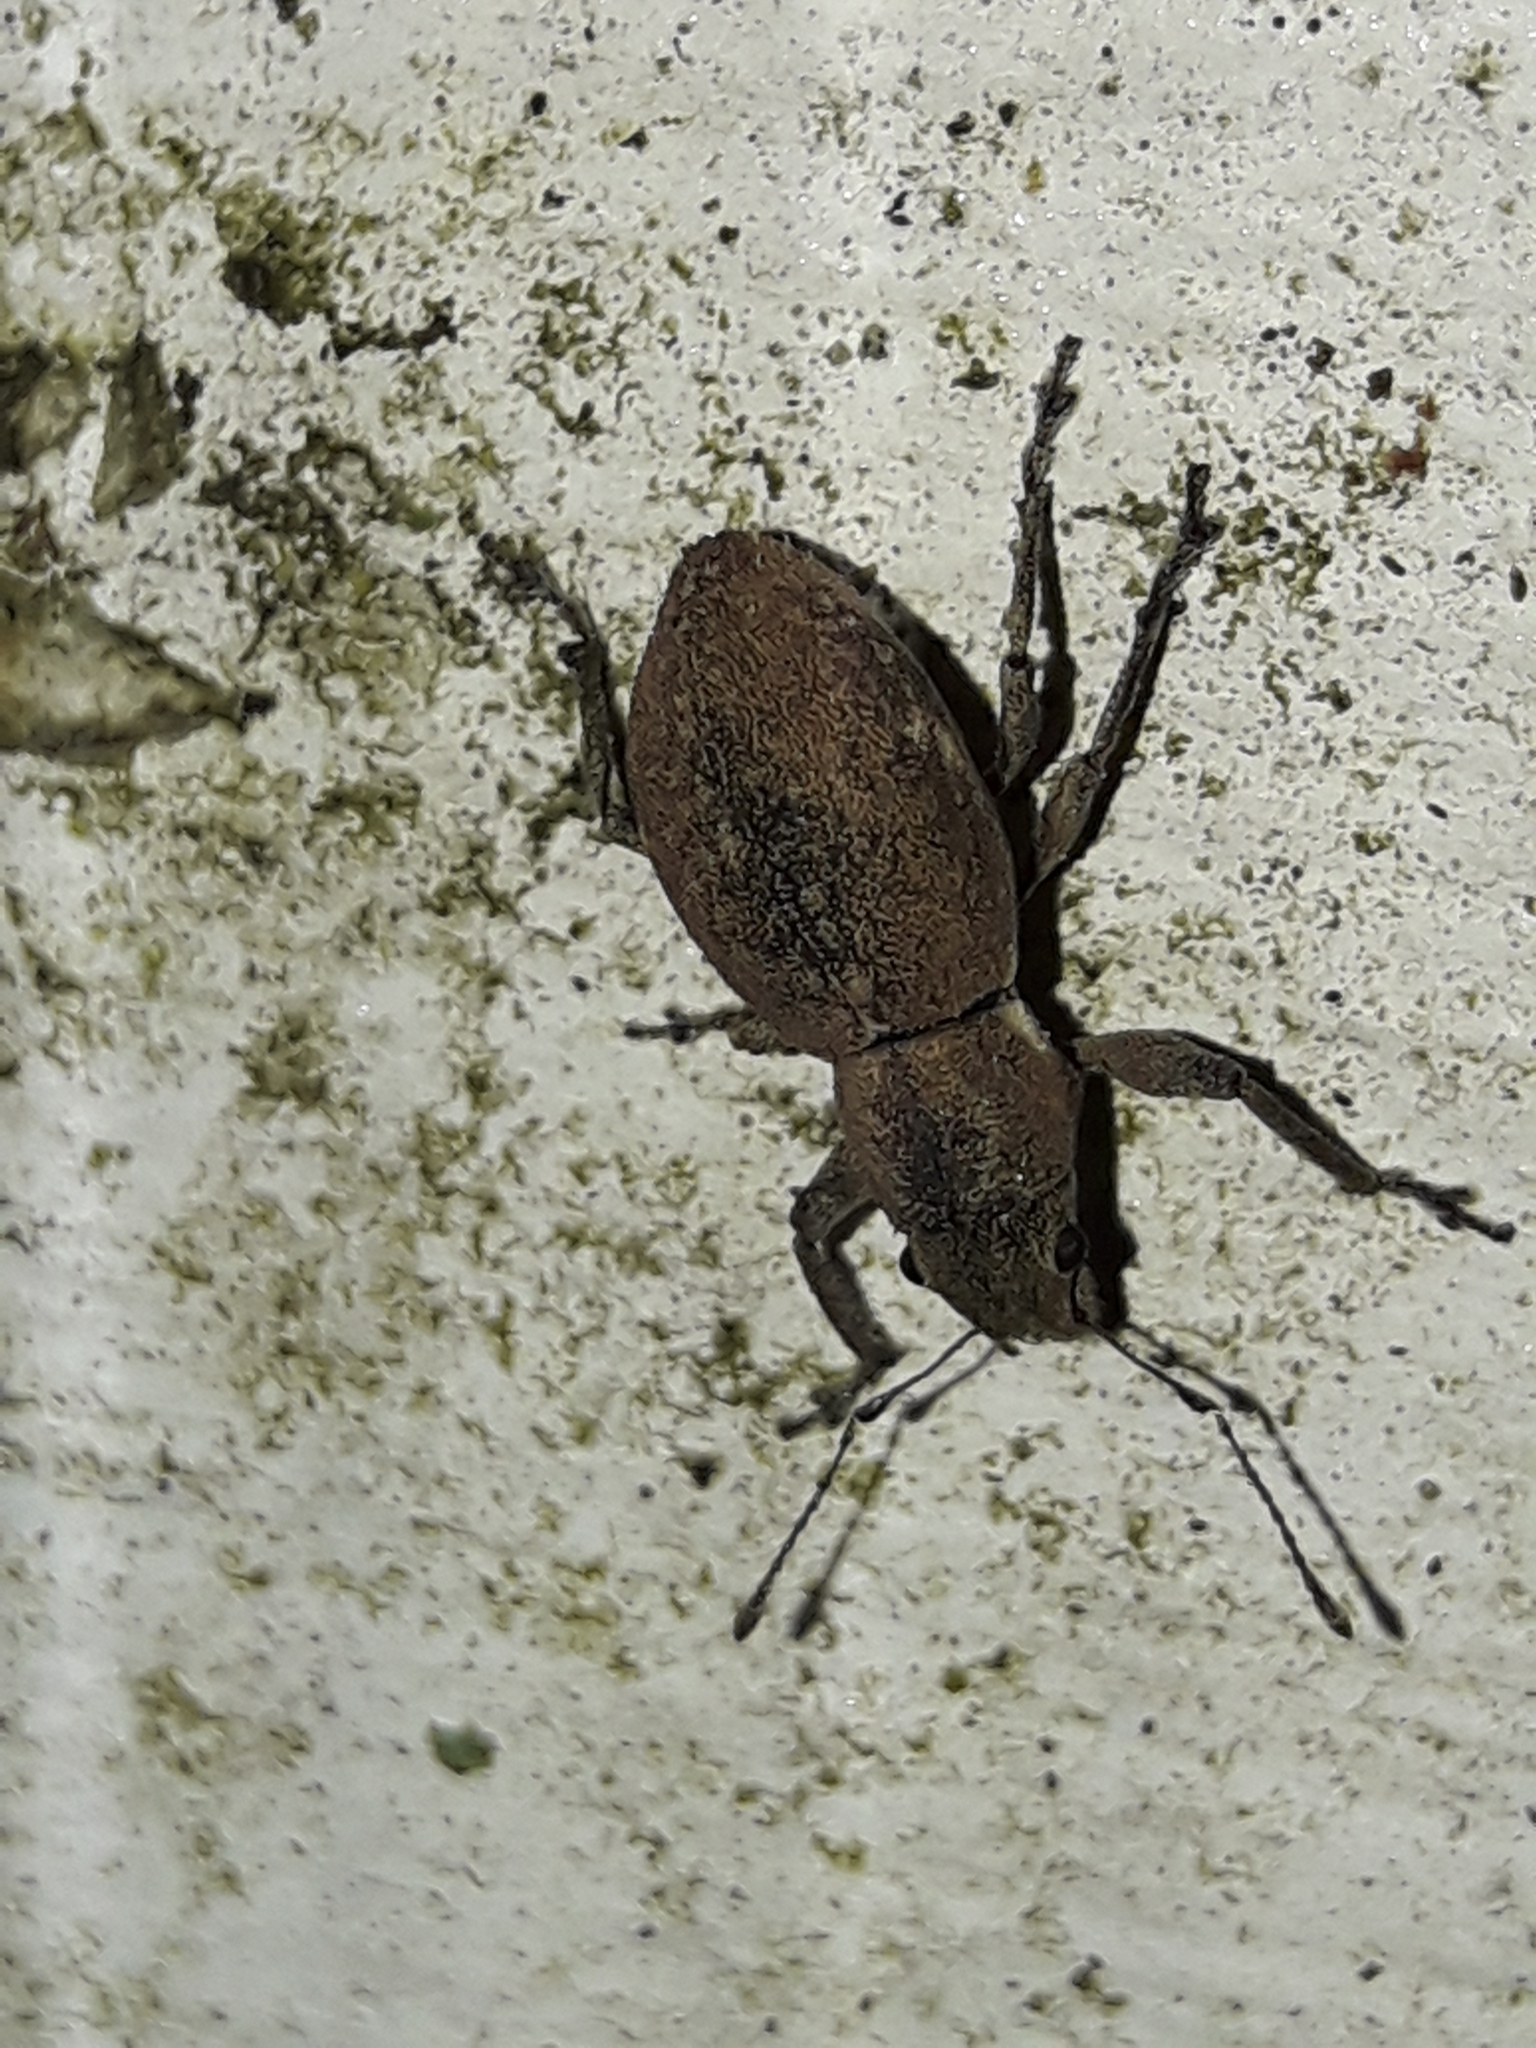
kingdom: Animalia
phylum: Arthropoda
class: Insecta
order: Coleoptera
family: Curculionidae
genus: Naupactus
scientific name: Naupactus cervinus
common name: Fuller rose beetle
